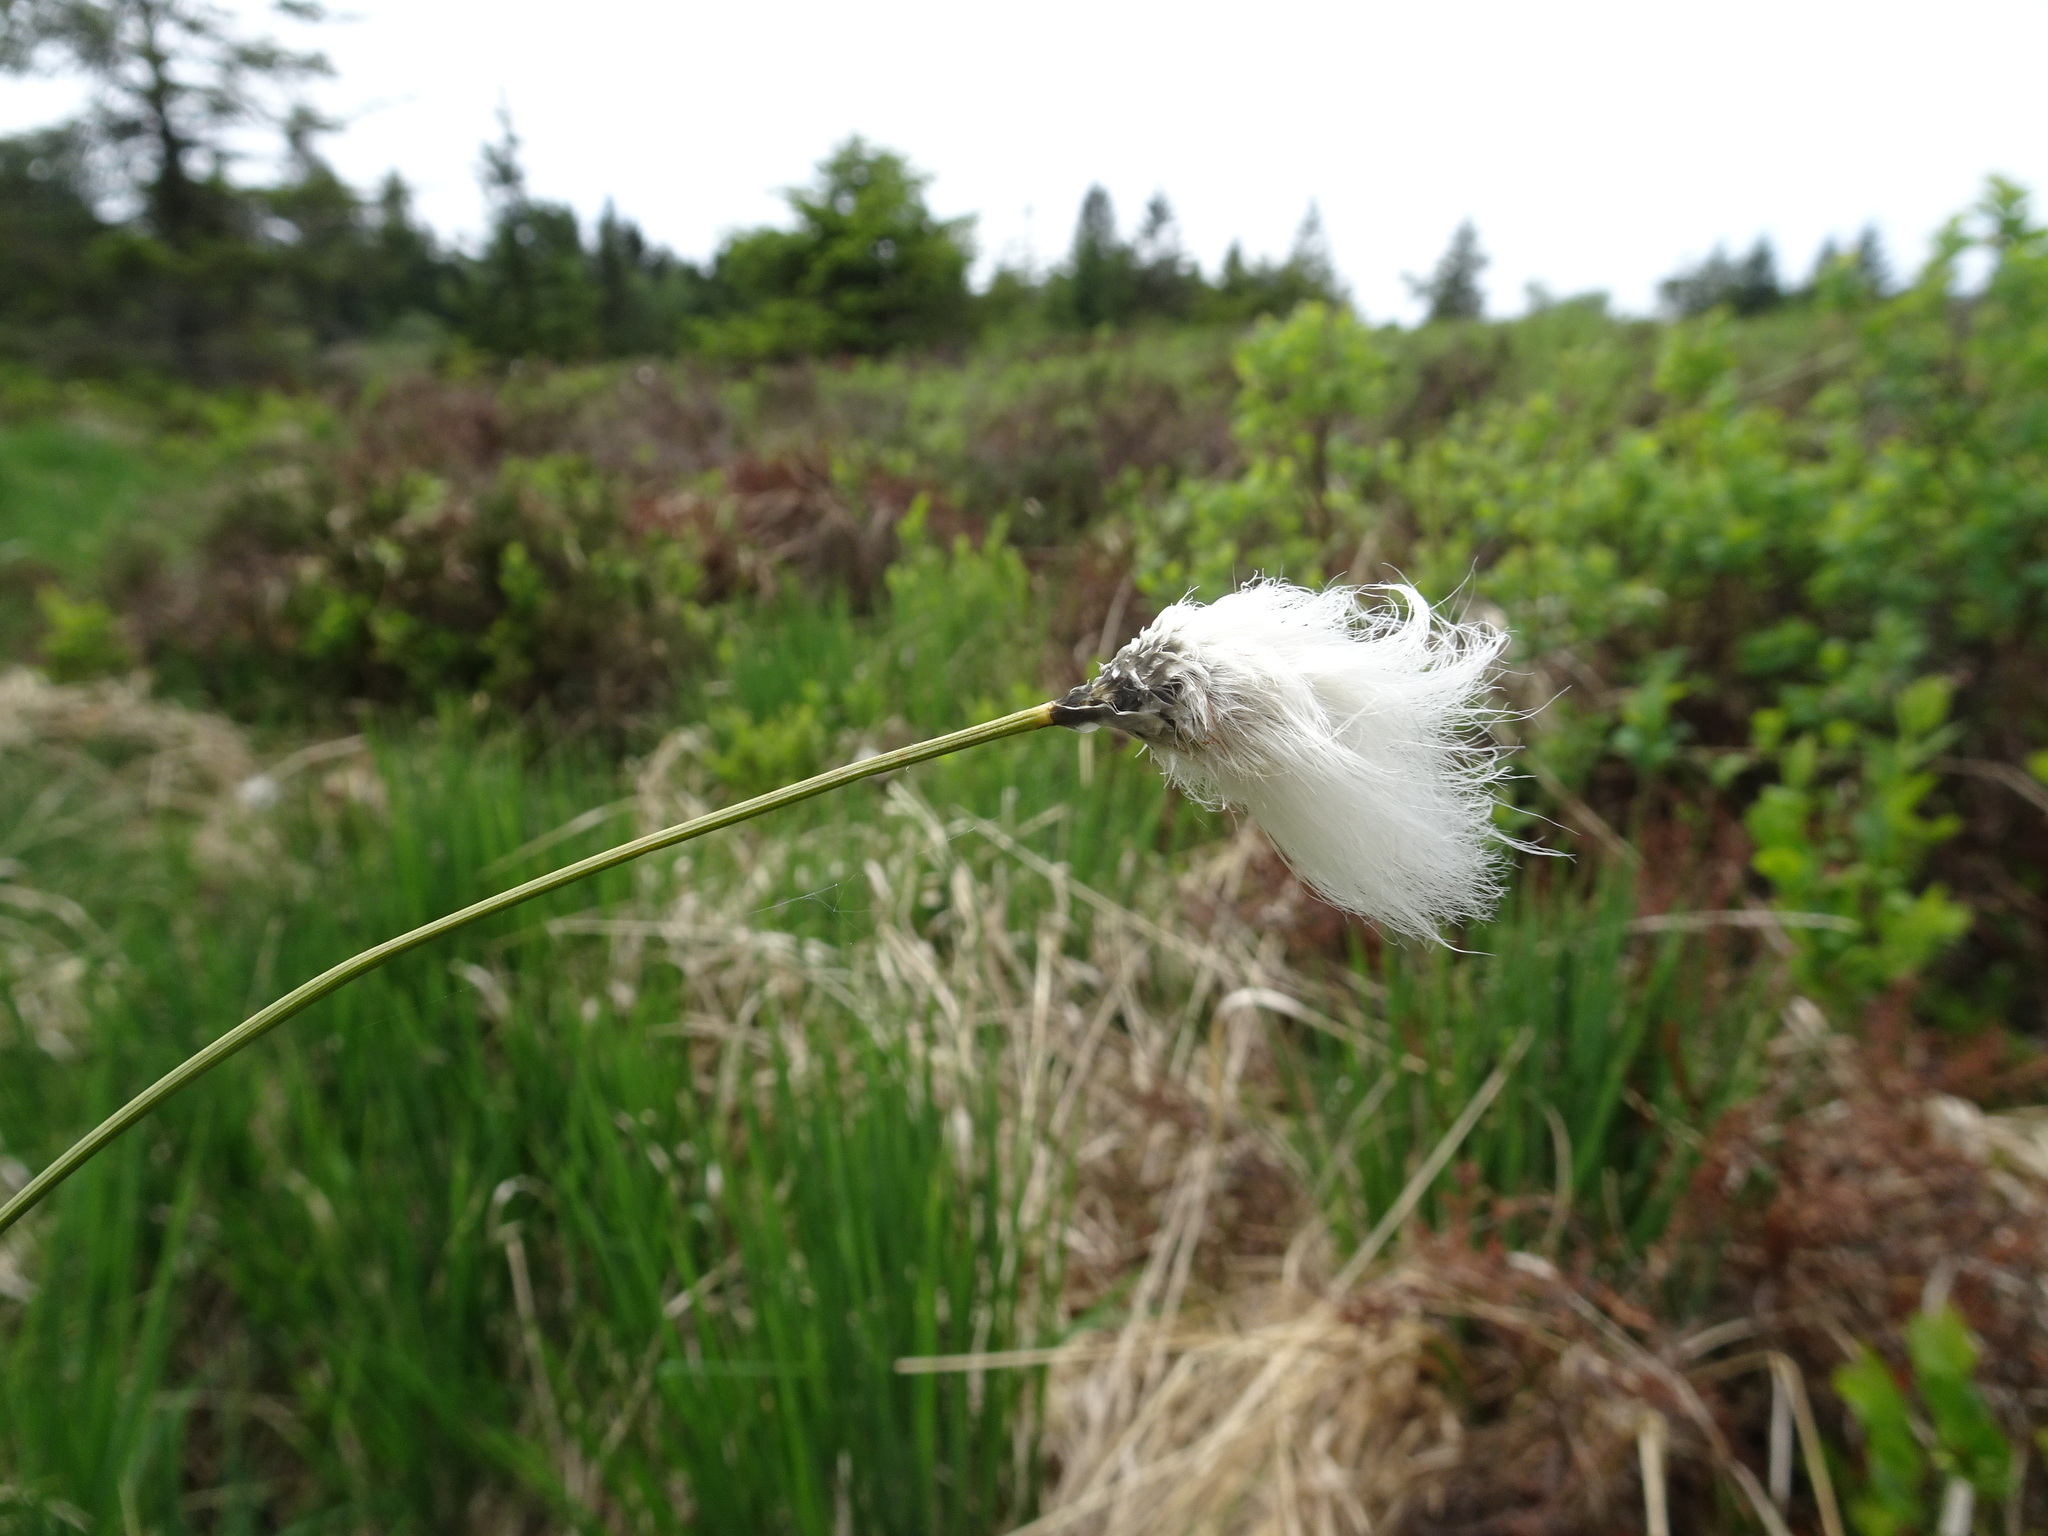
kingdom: Plantae
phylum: Tracheophyta
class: Liliopsida
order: Poales
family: Cyperaceae
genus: Eriophorum
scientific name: Eriophorum vaginatum
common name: Hare's-tail cottongrass
